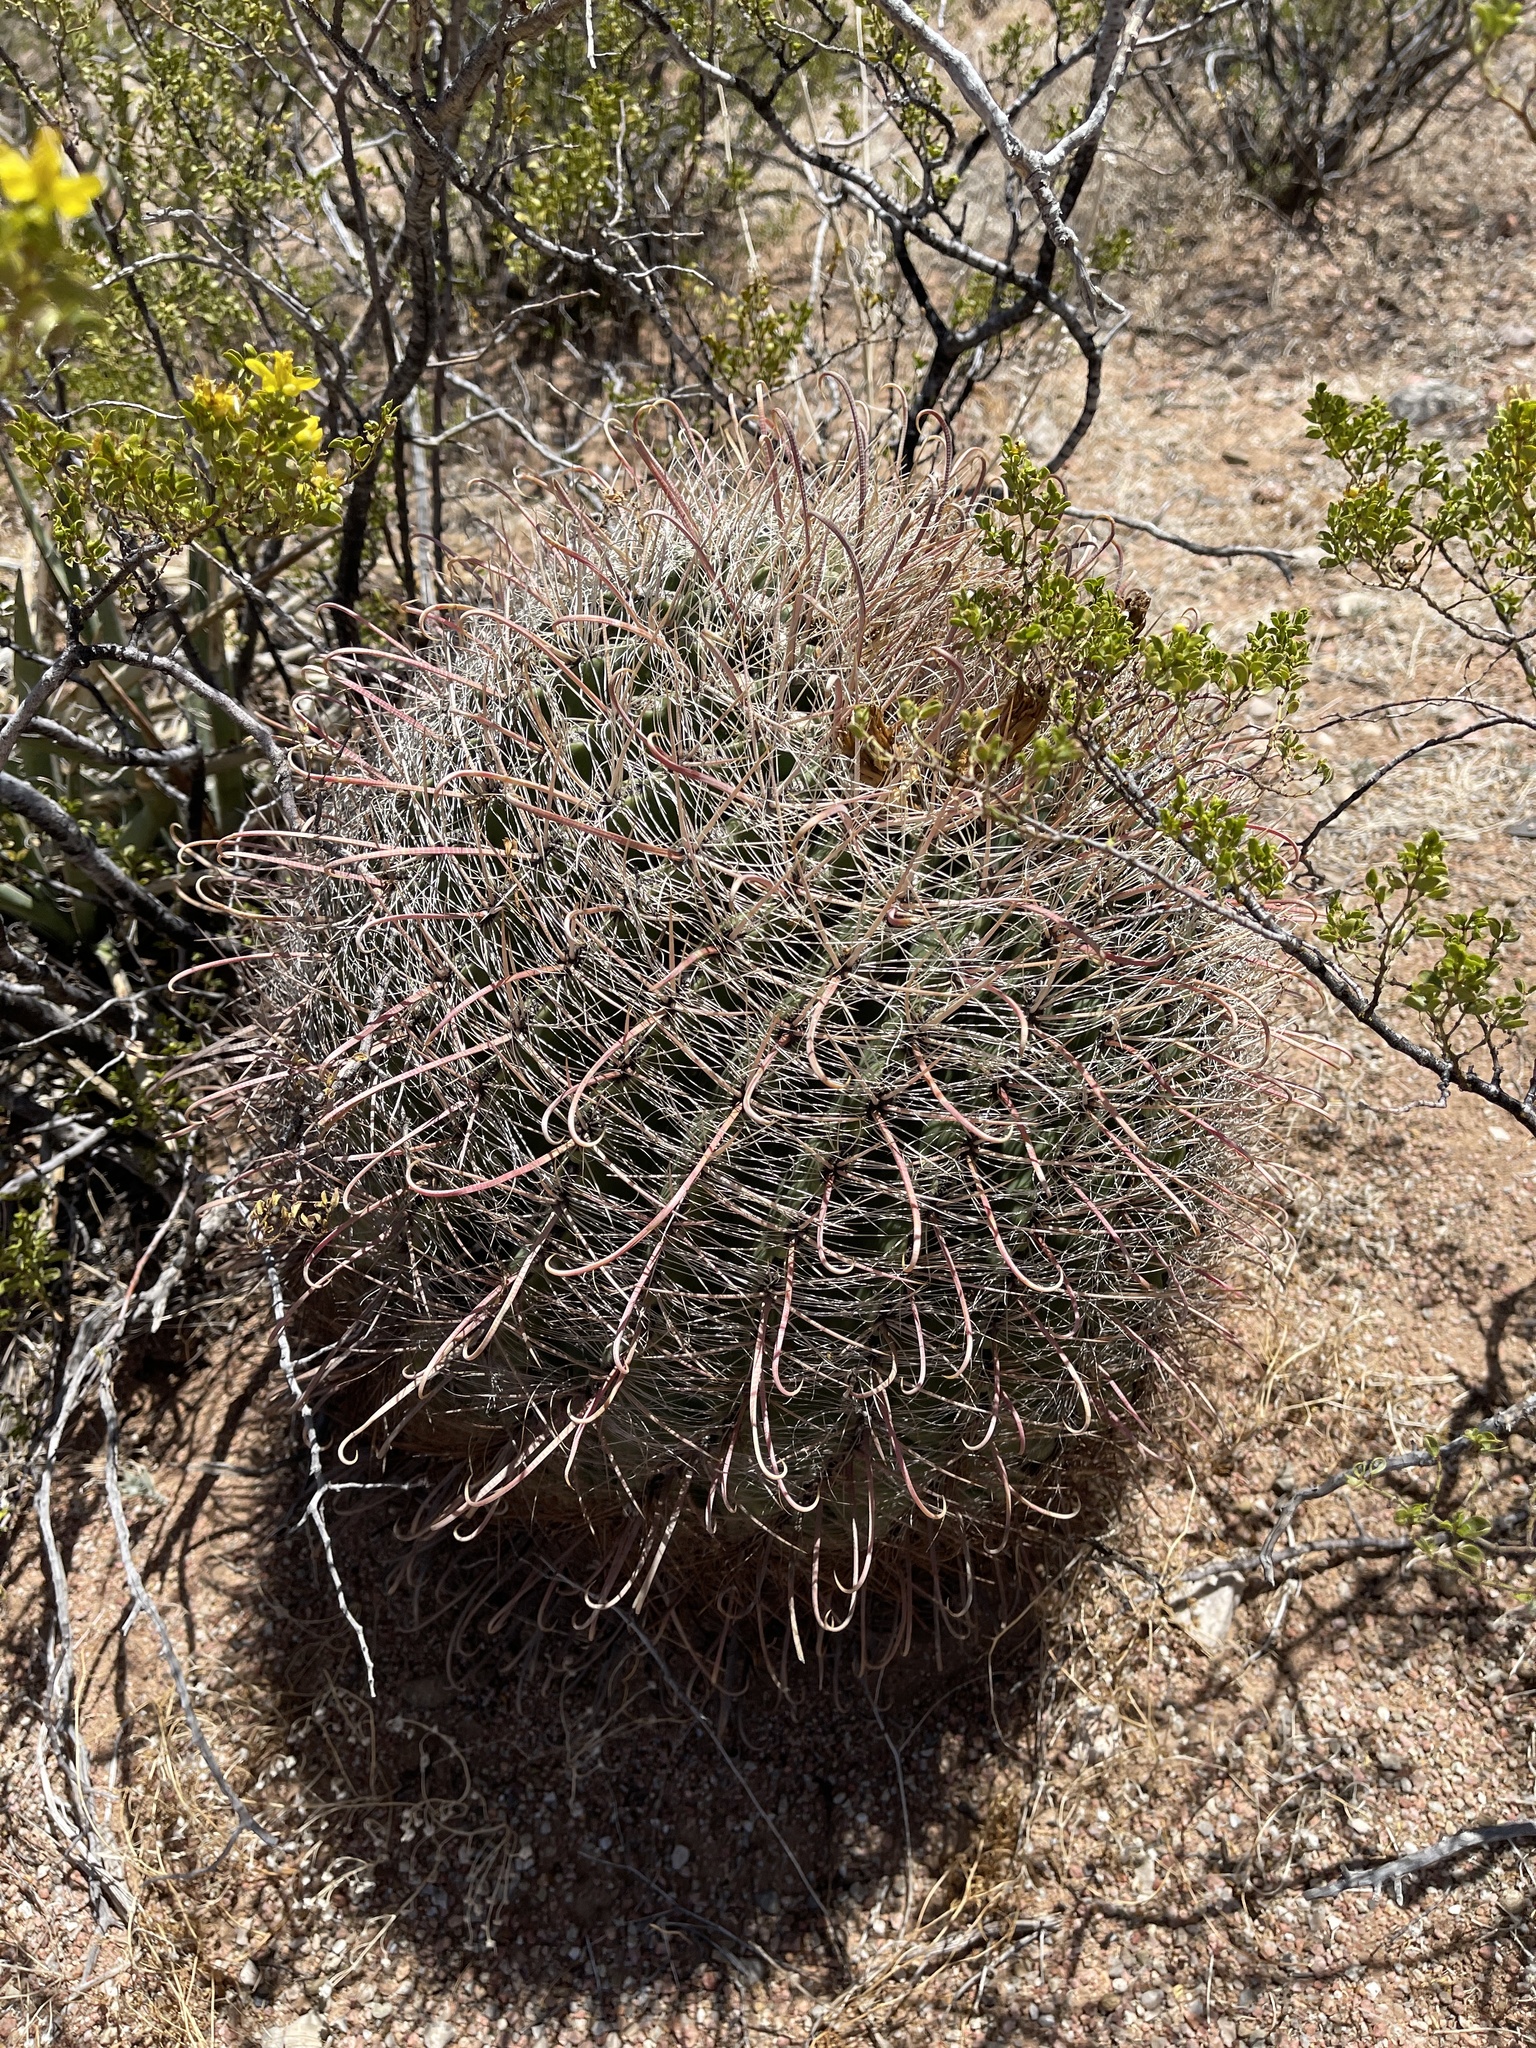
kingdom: Plantae
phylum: Tracheophyta
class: Magnoliopsida
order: Caryophyllales
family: Cactaceae
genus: Ferocactus
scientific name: Ferocactus wislizeni
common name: Candy barrel cactus
